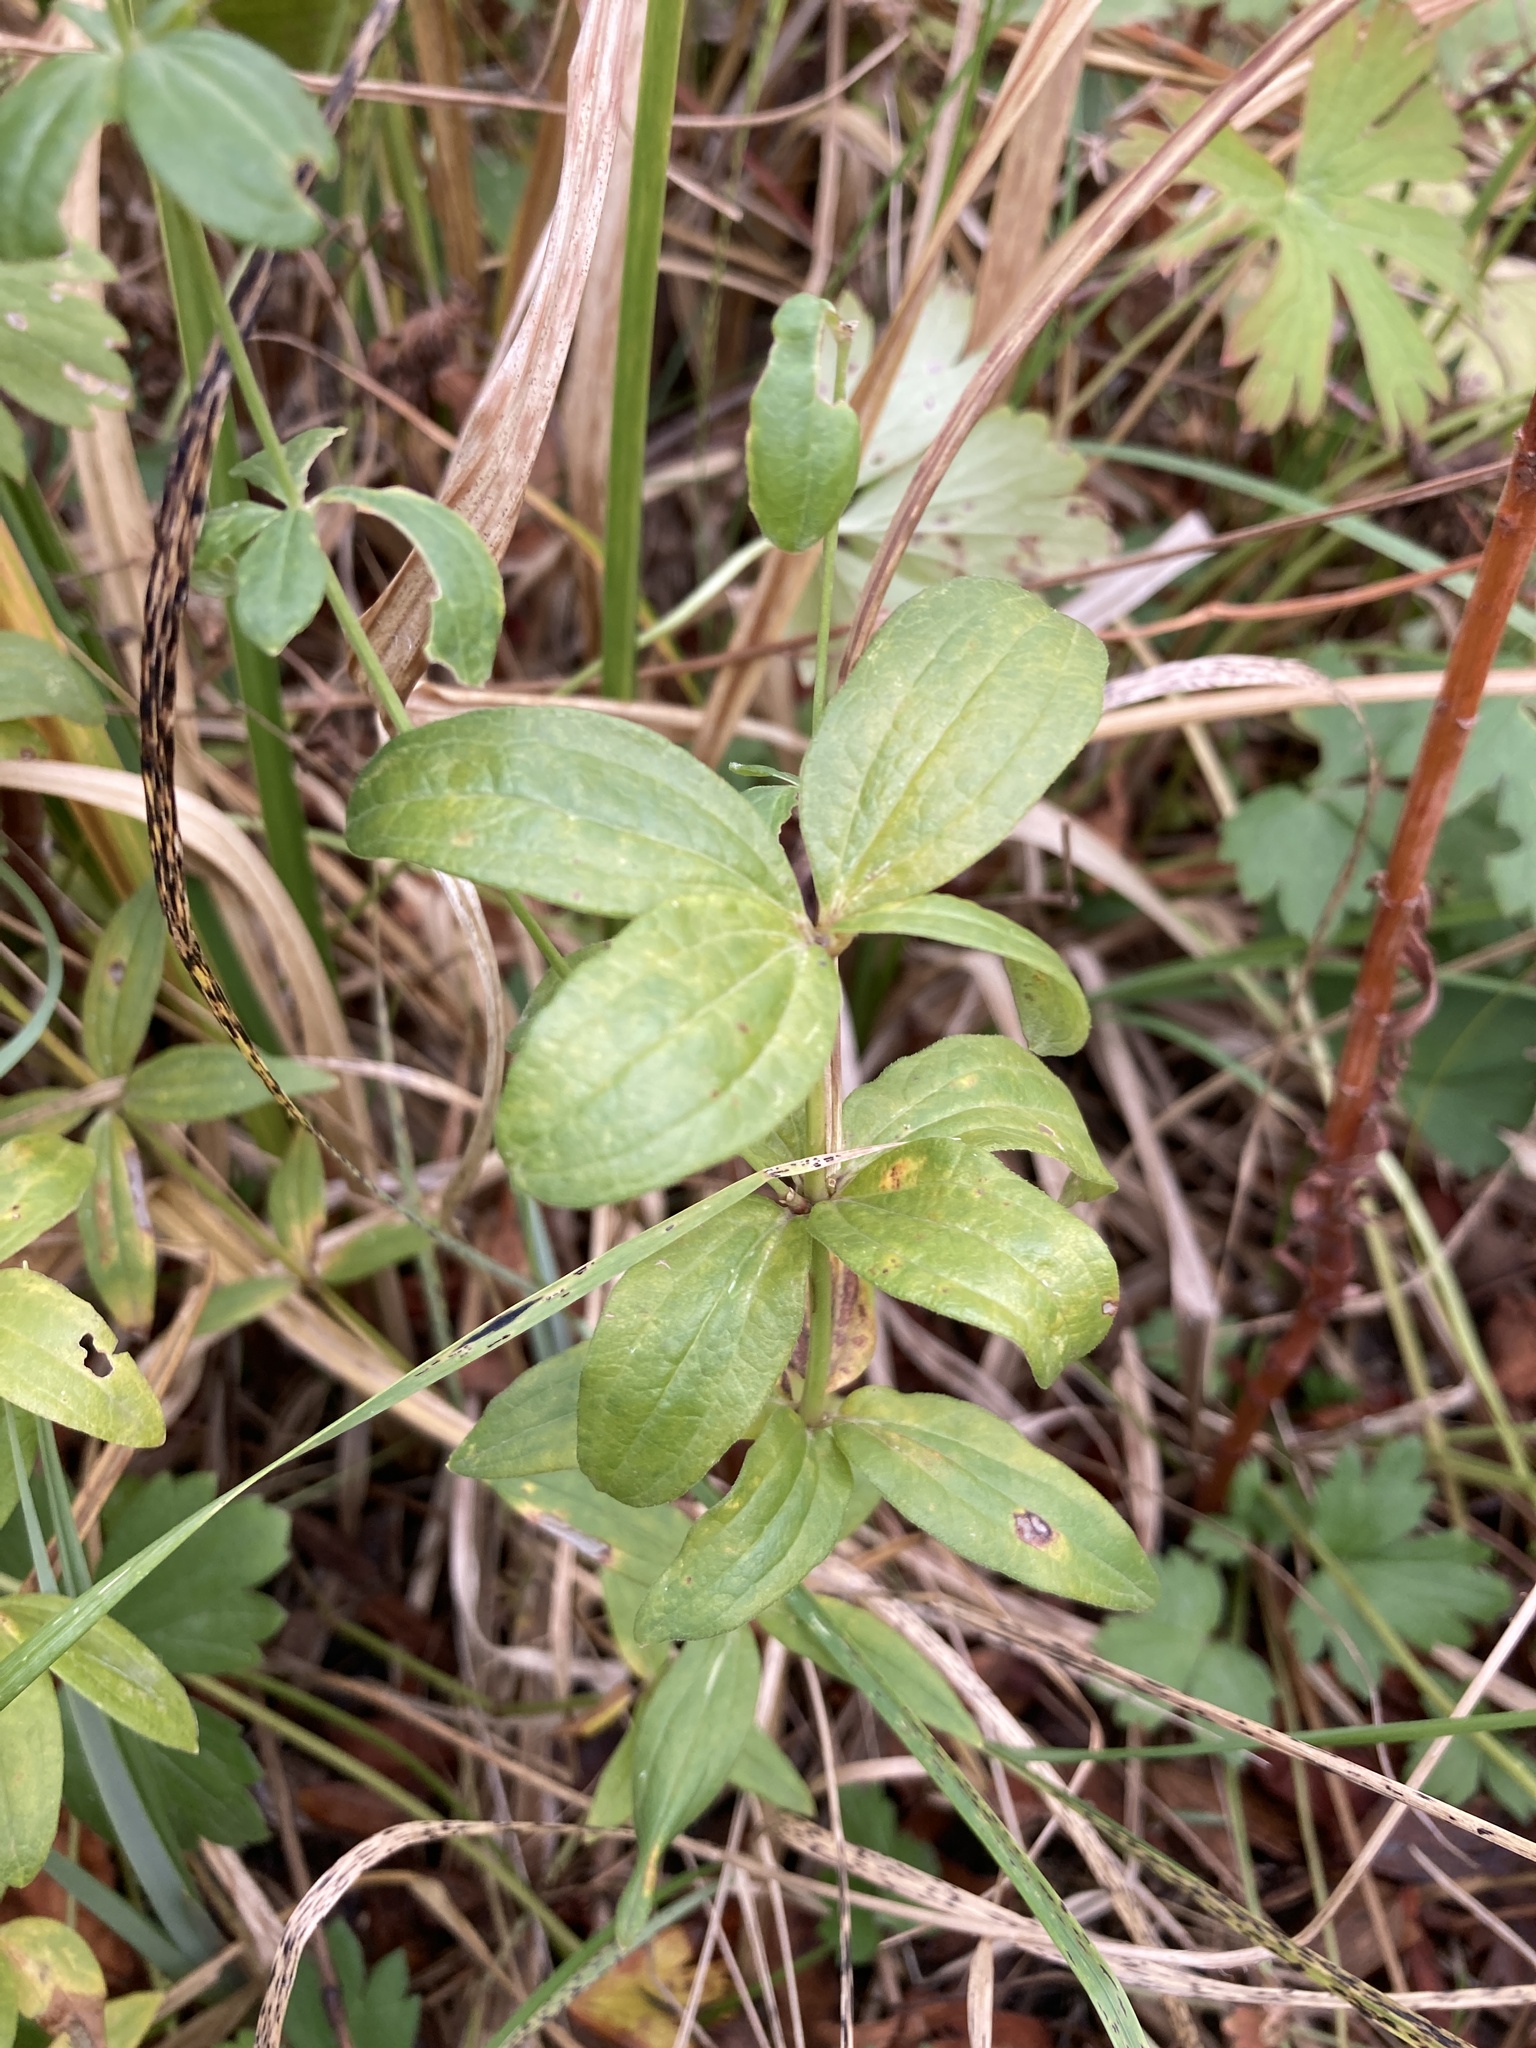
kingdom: Plantae
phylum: Tracheophyta
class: Magnoliopsida
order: Gentianales
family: Rubiaceae
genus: Galium
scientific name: Galium rubioides
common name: European bedstraw
